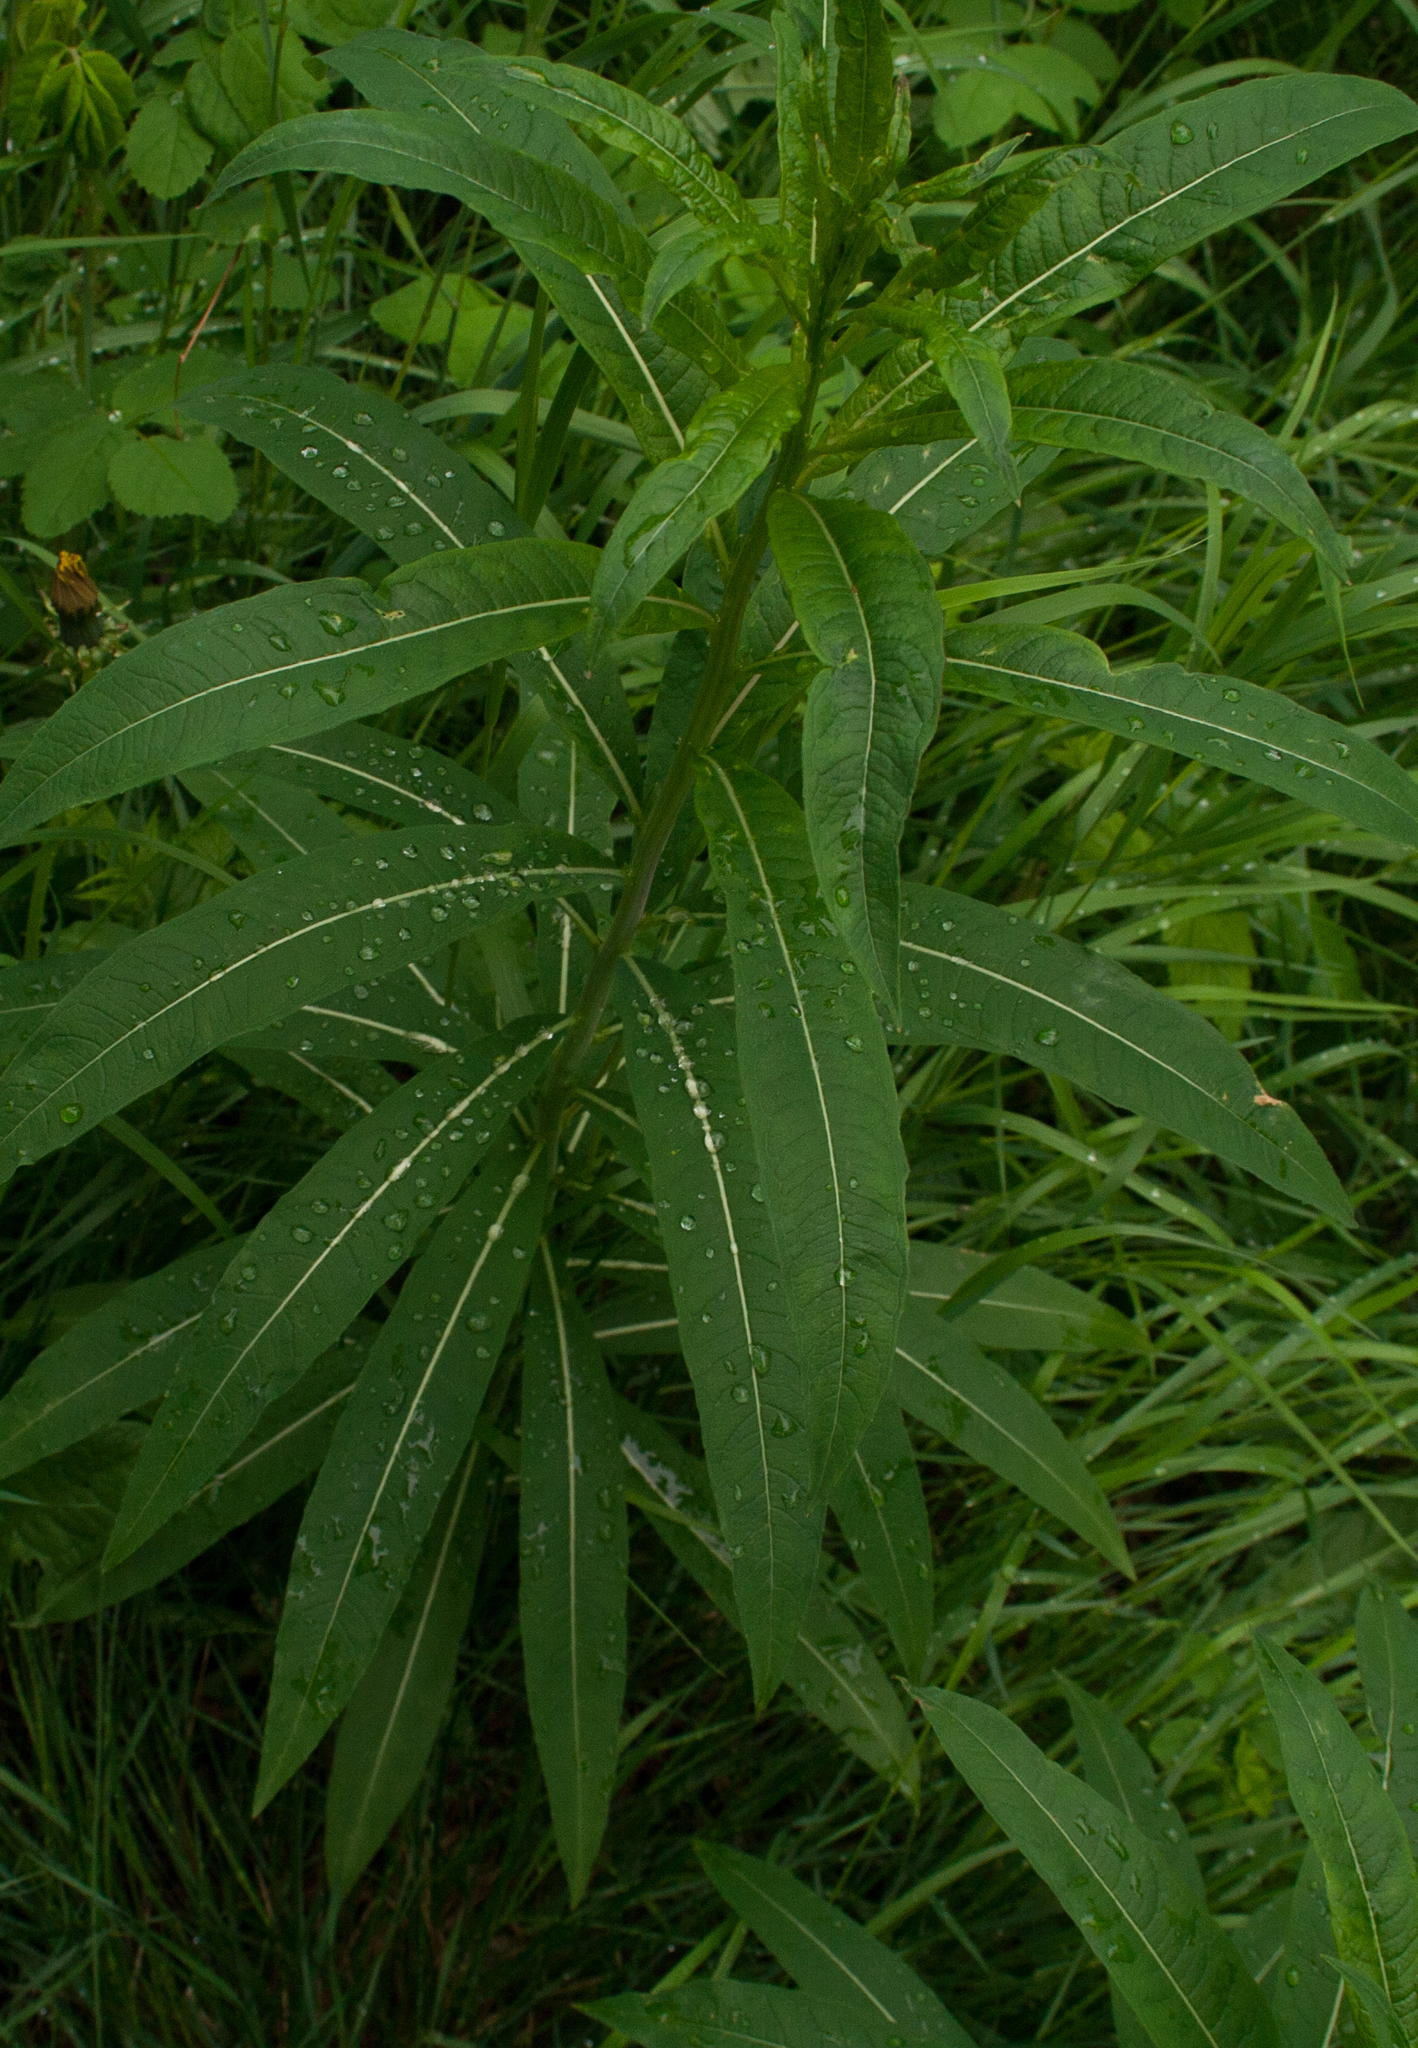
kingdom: Plantae
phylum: Tracheophyta
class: Magnoliopsida
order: Myrtales
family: Onagraceae
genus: Chamaenerion
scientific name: Chamaenerion angustifolium
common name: Fireweed
